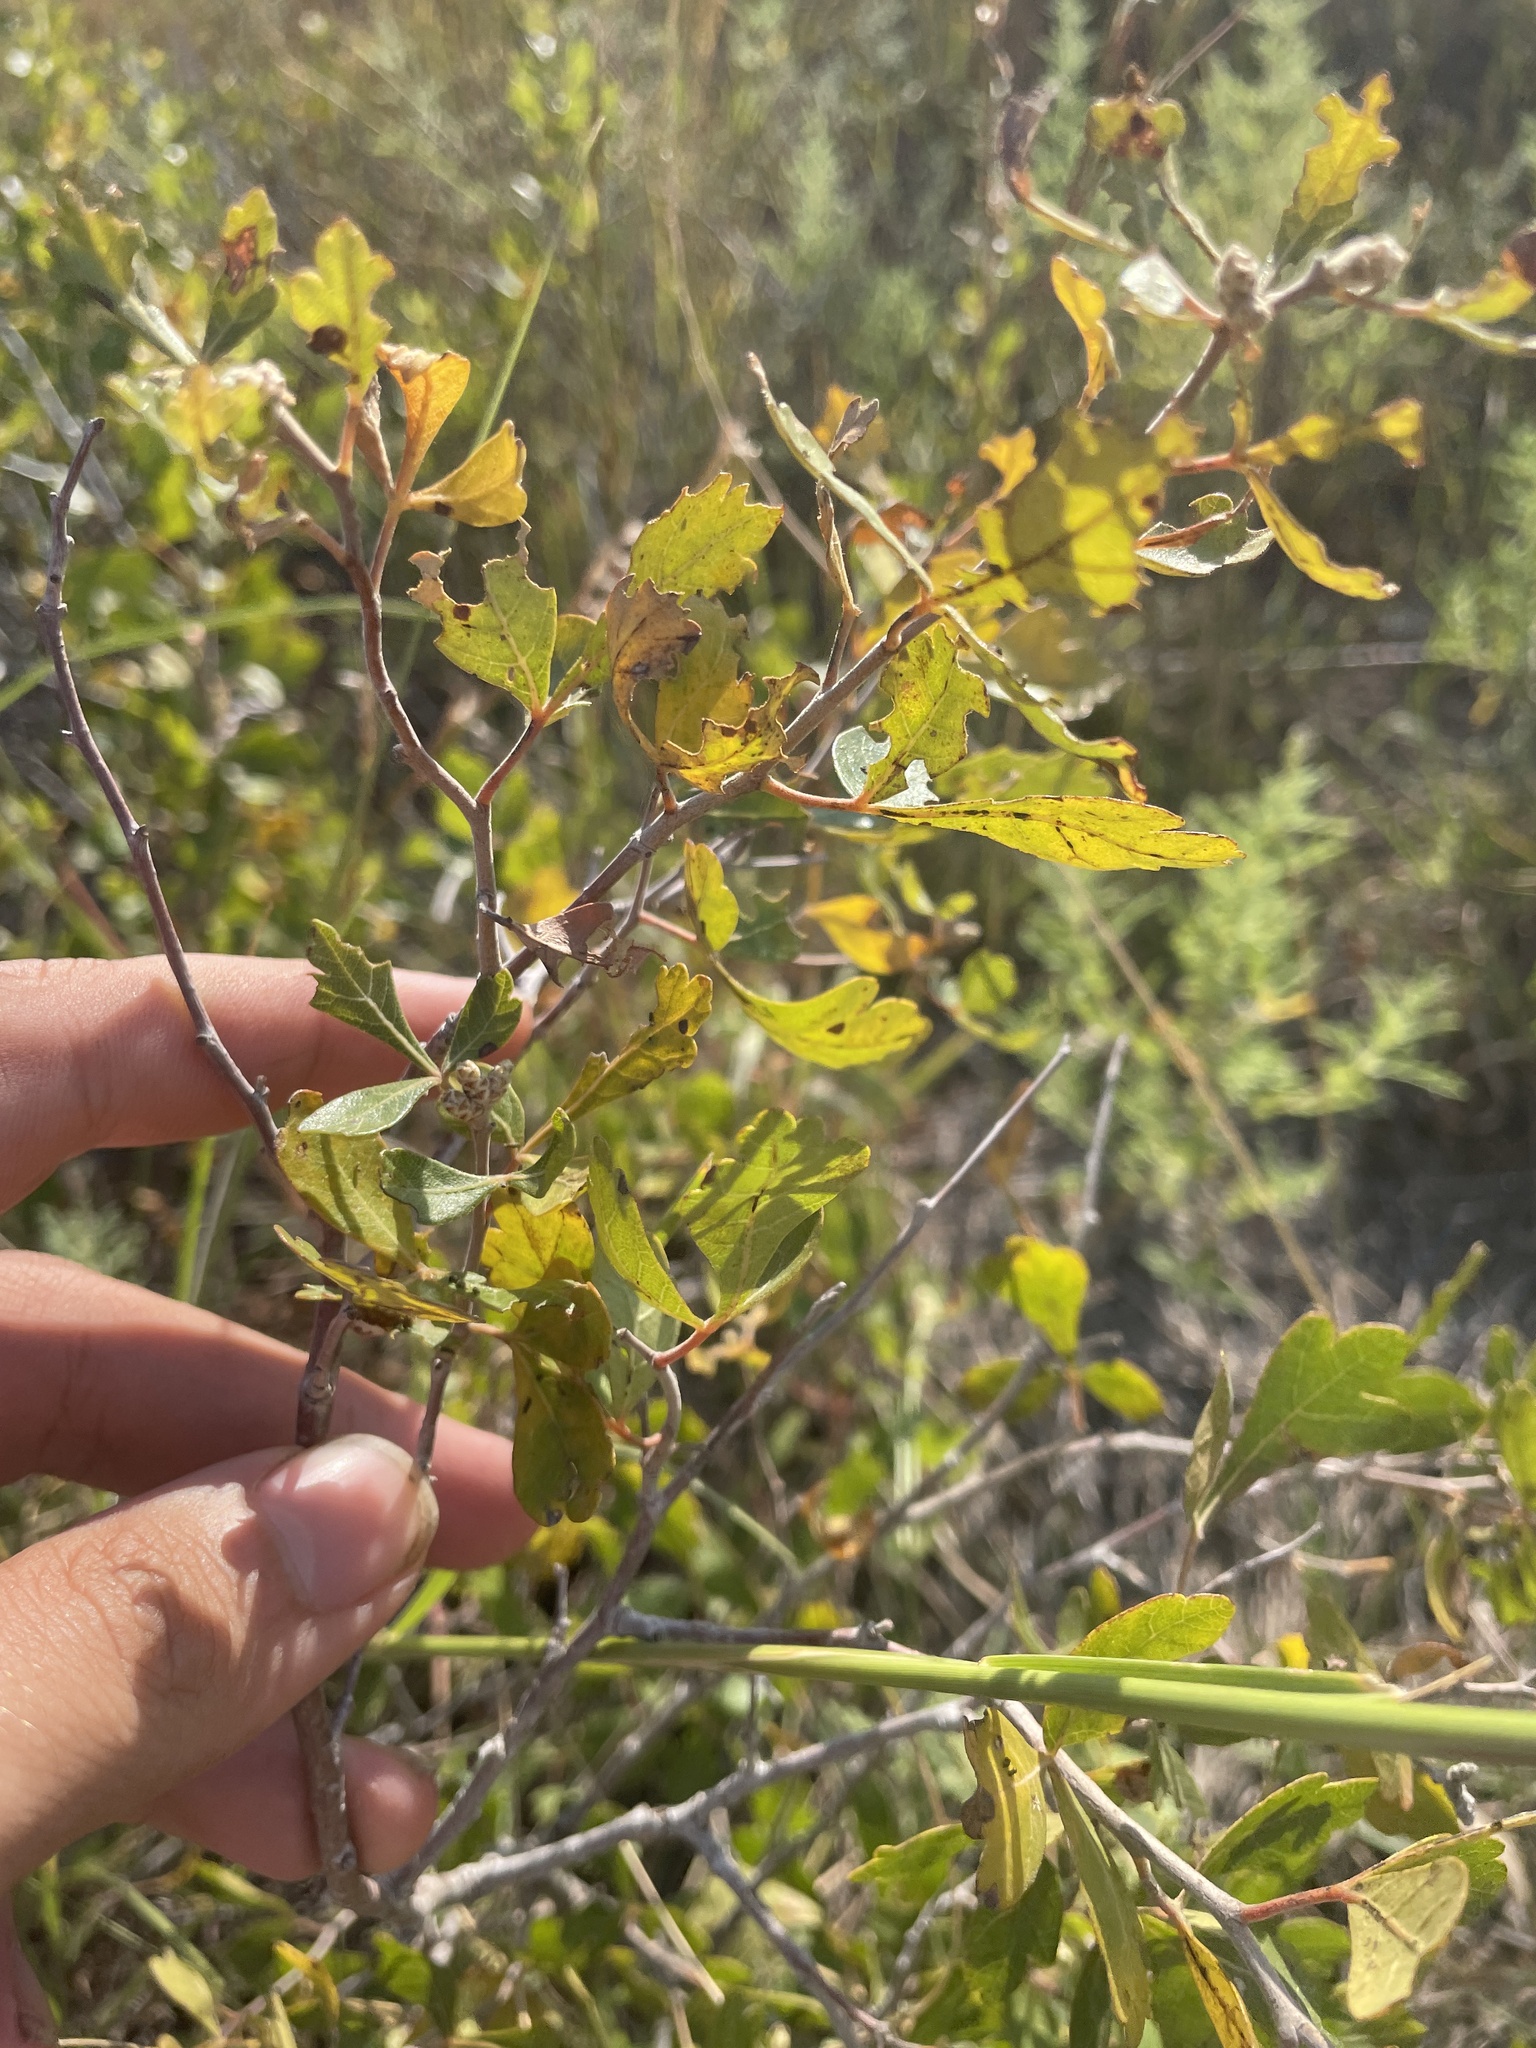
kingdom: Plantae
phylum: Tracheophyta
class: Magnoliopsida
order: Sapindales
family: Anacardiaceae
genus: Rhus
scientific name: Rhus aromatica
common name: Aromatic sumac
